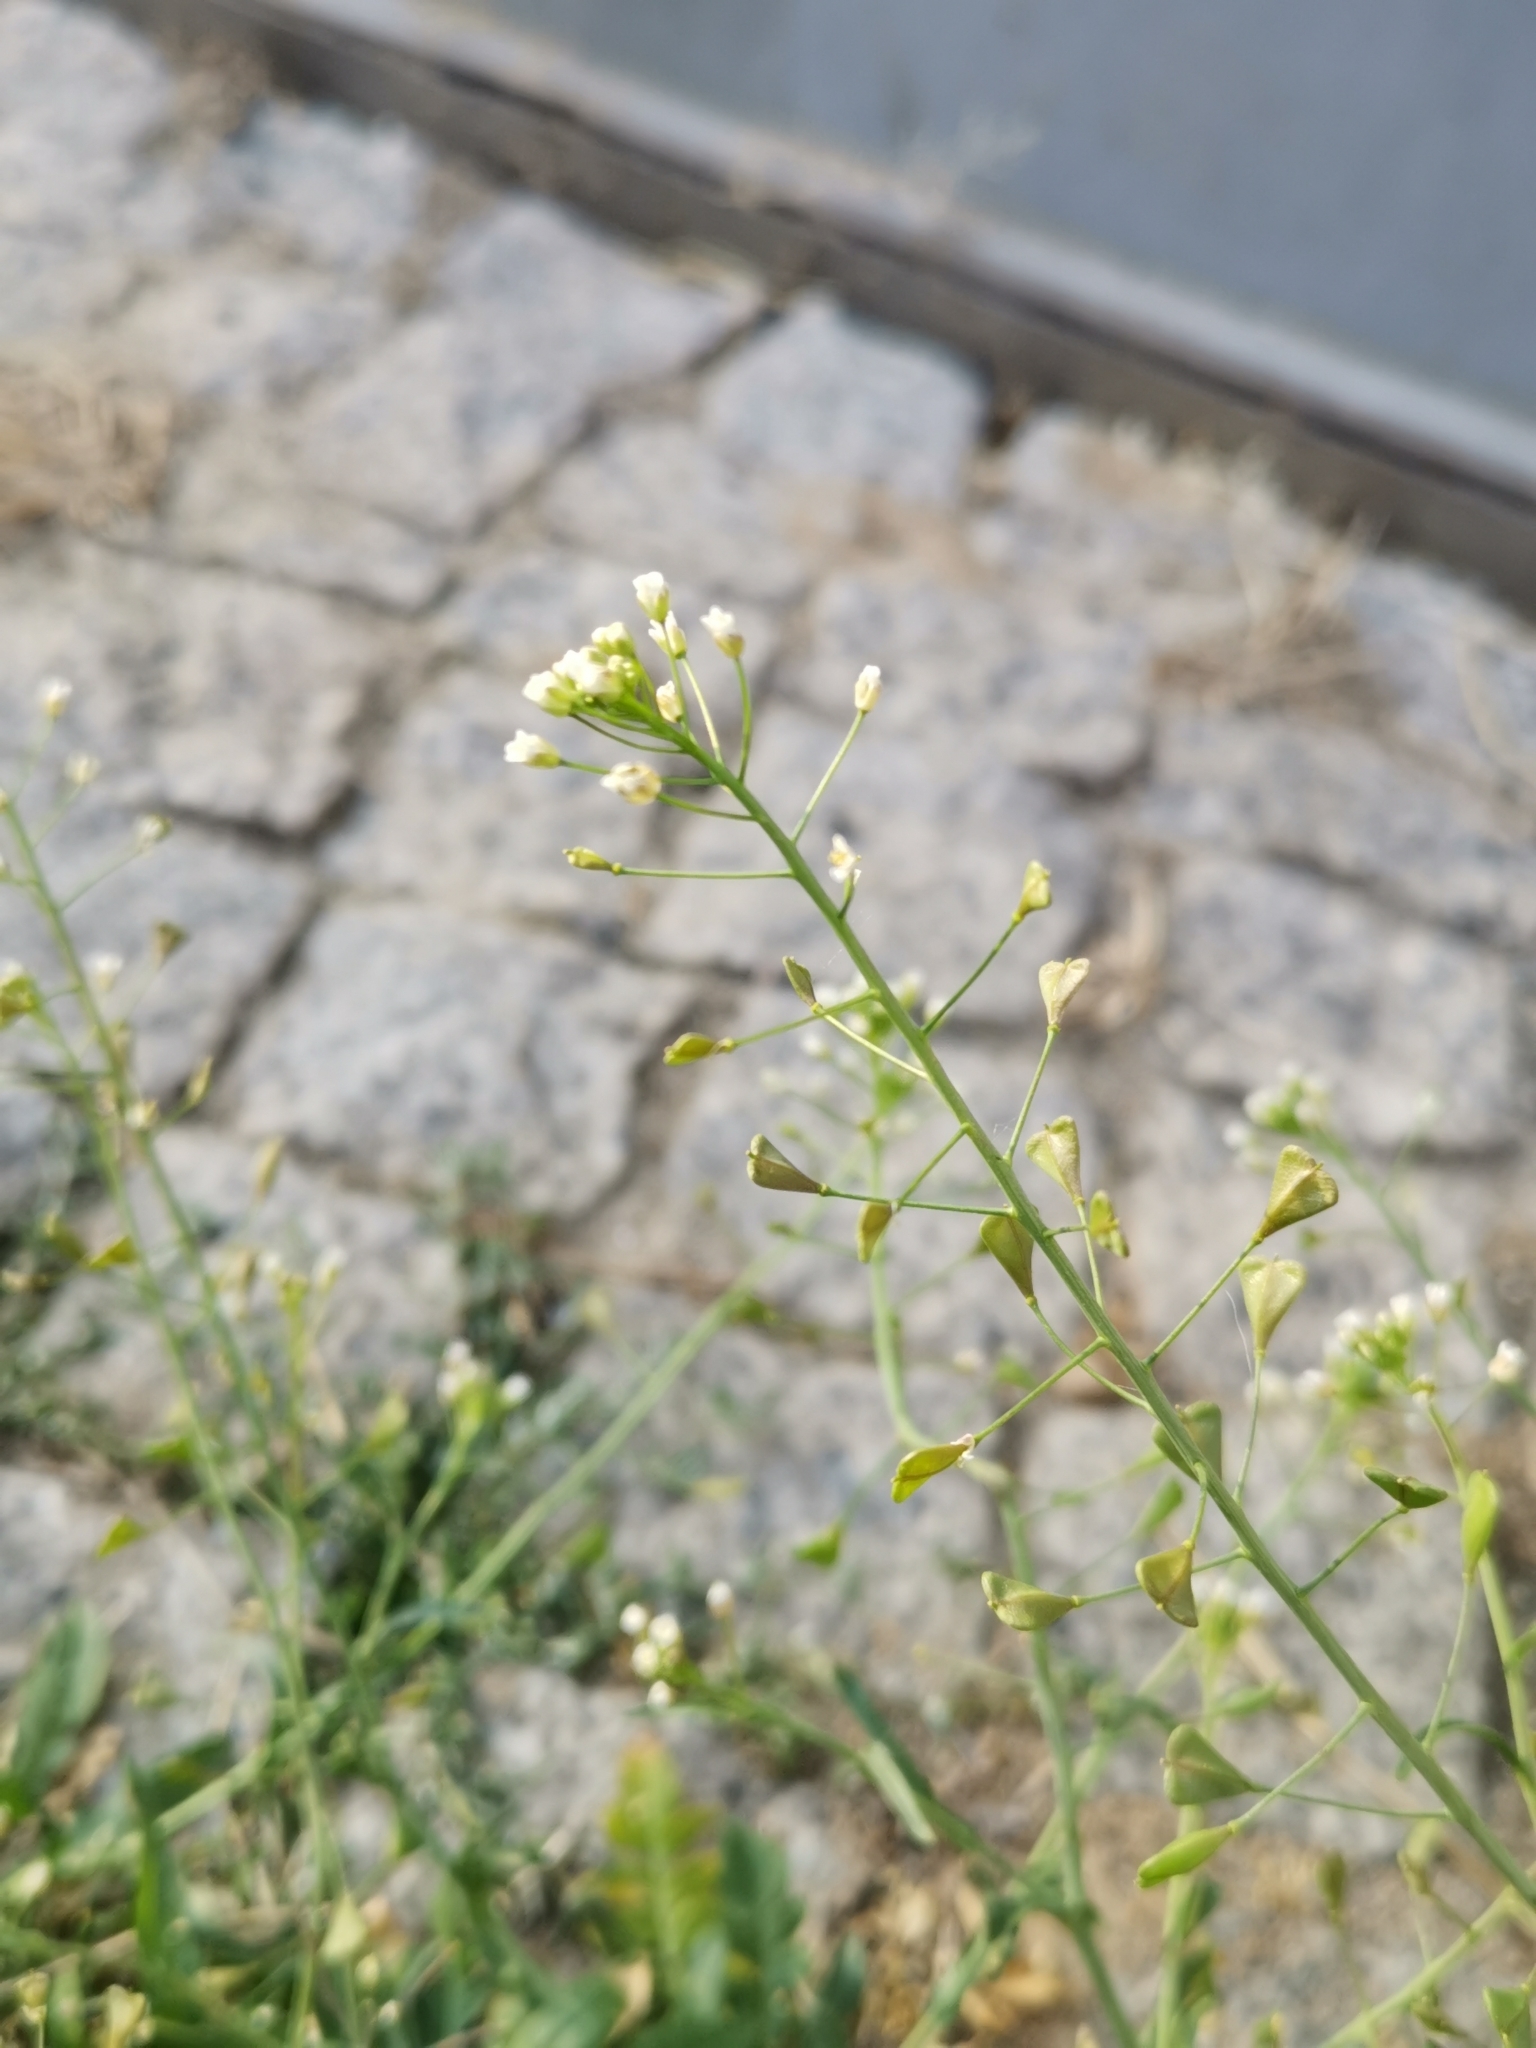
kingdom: Plantae
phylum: Tracheophyta
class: Magnoliopsida
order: Brassicales
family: Brassicaceae
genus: Capsella
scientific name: Capsella bursa-pastoris
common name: Shepherd's purse
